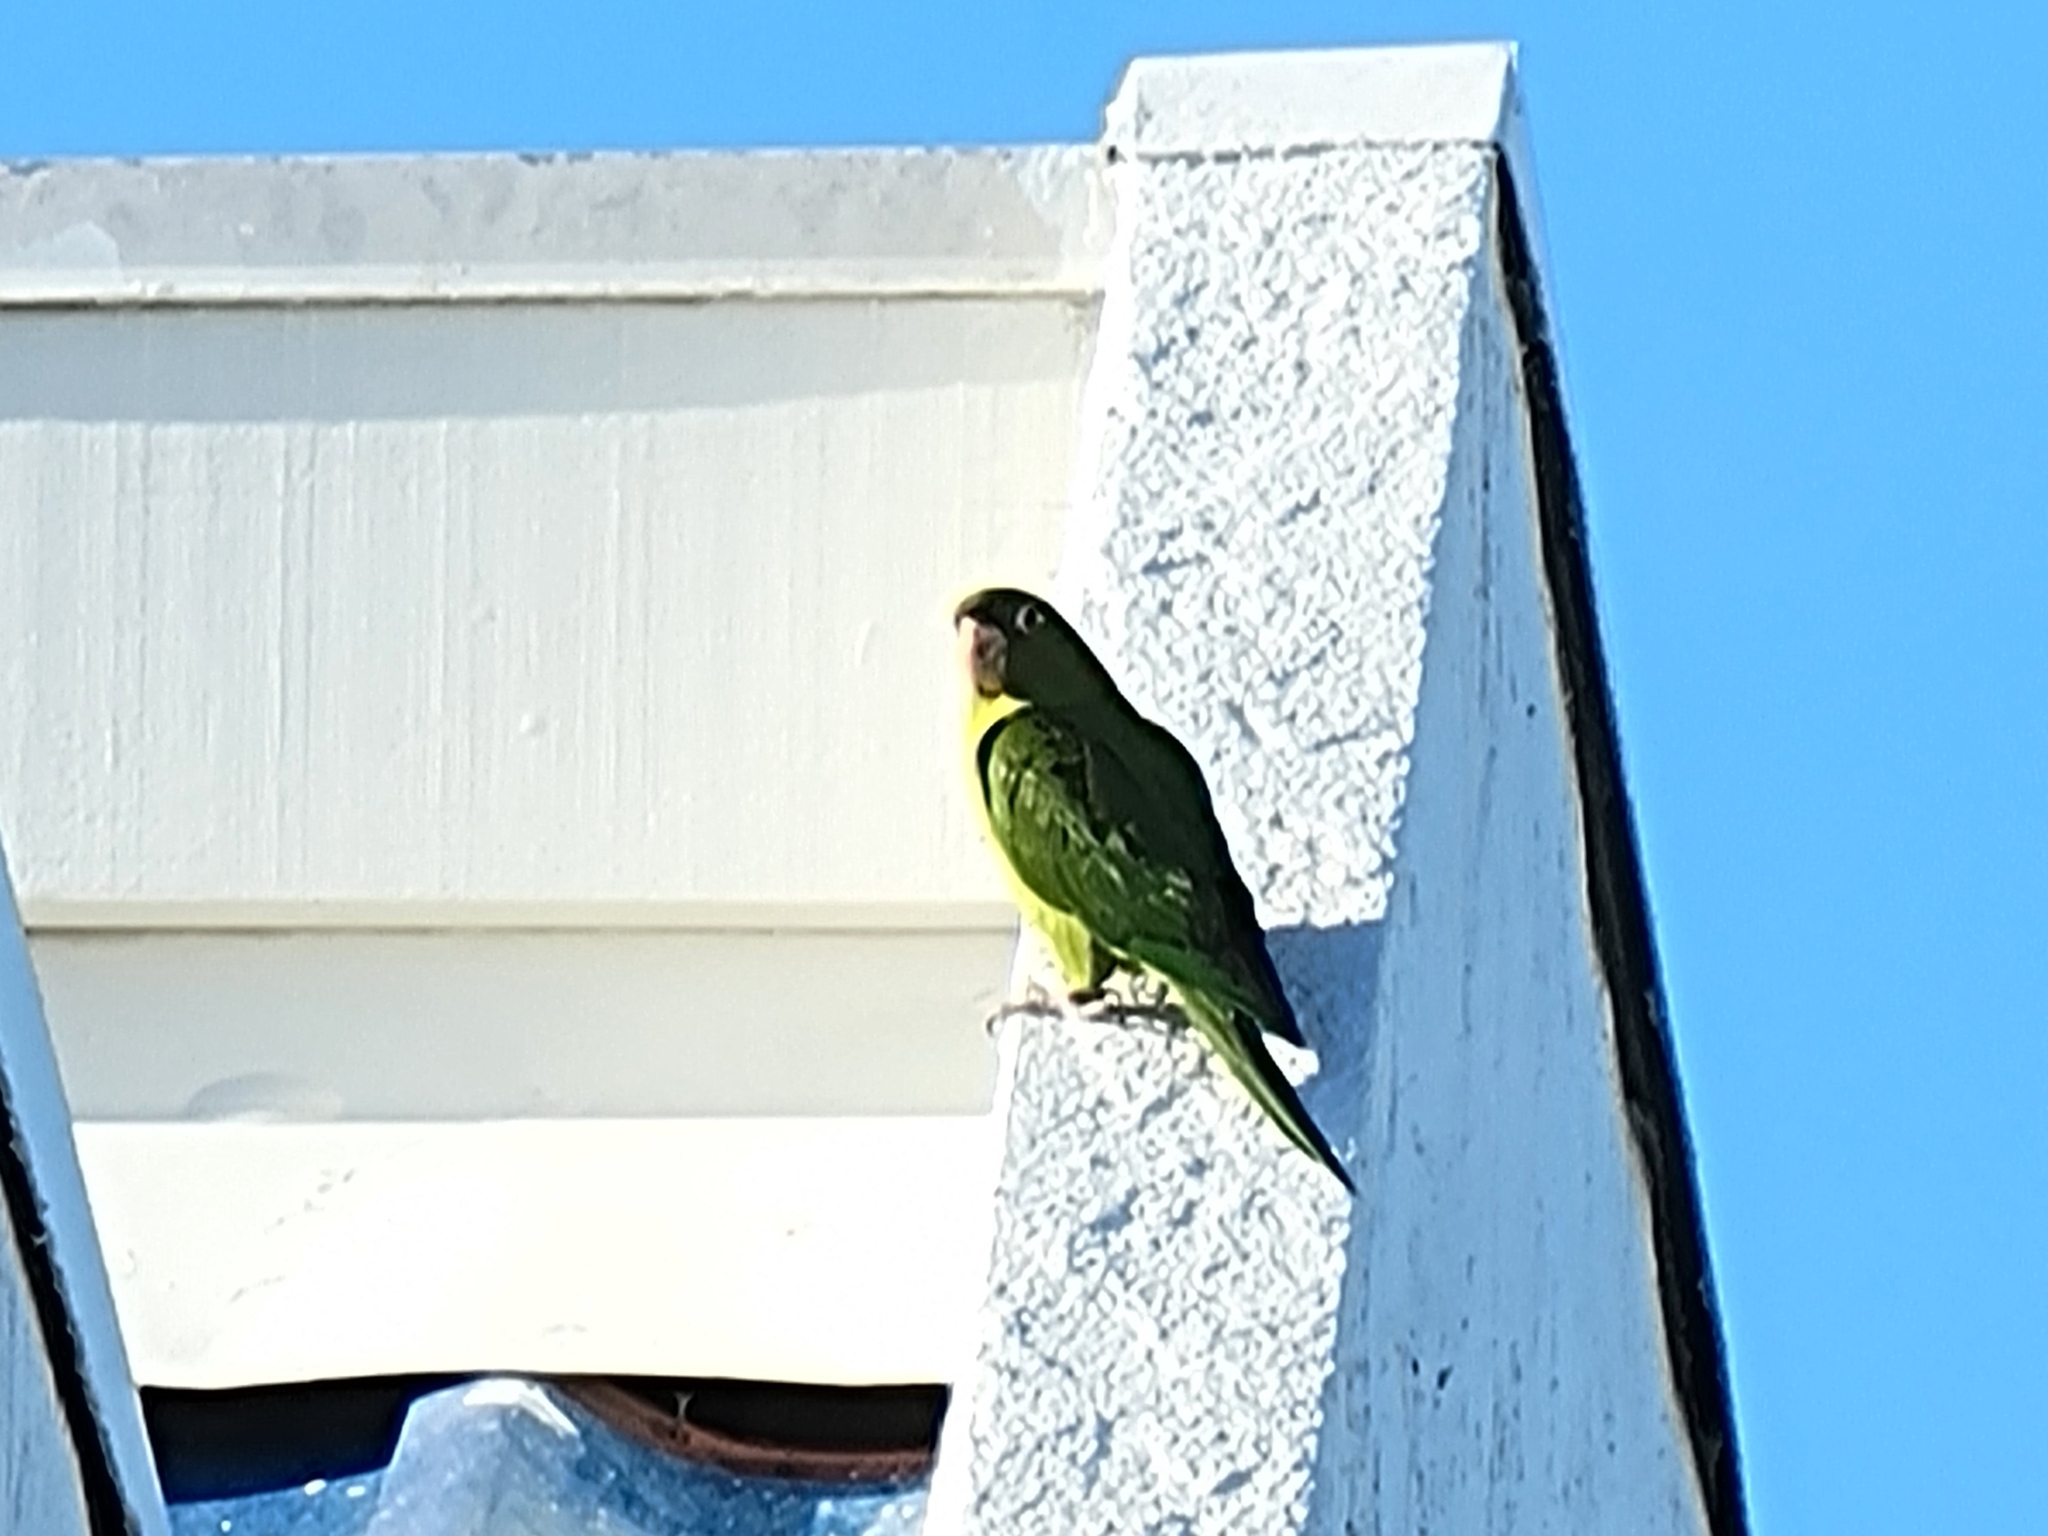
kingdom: Animalia
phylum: Chordata
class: Aves
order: Psittaciformes
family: Psittacidae
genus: Aratinga
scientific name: Aratinga mitrata
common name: Mitred parakeet
